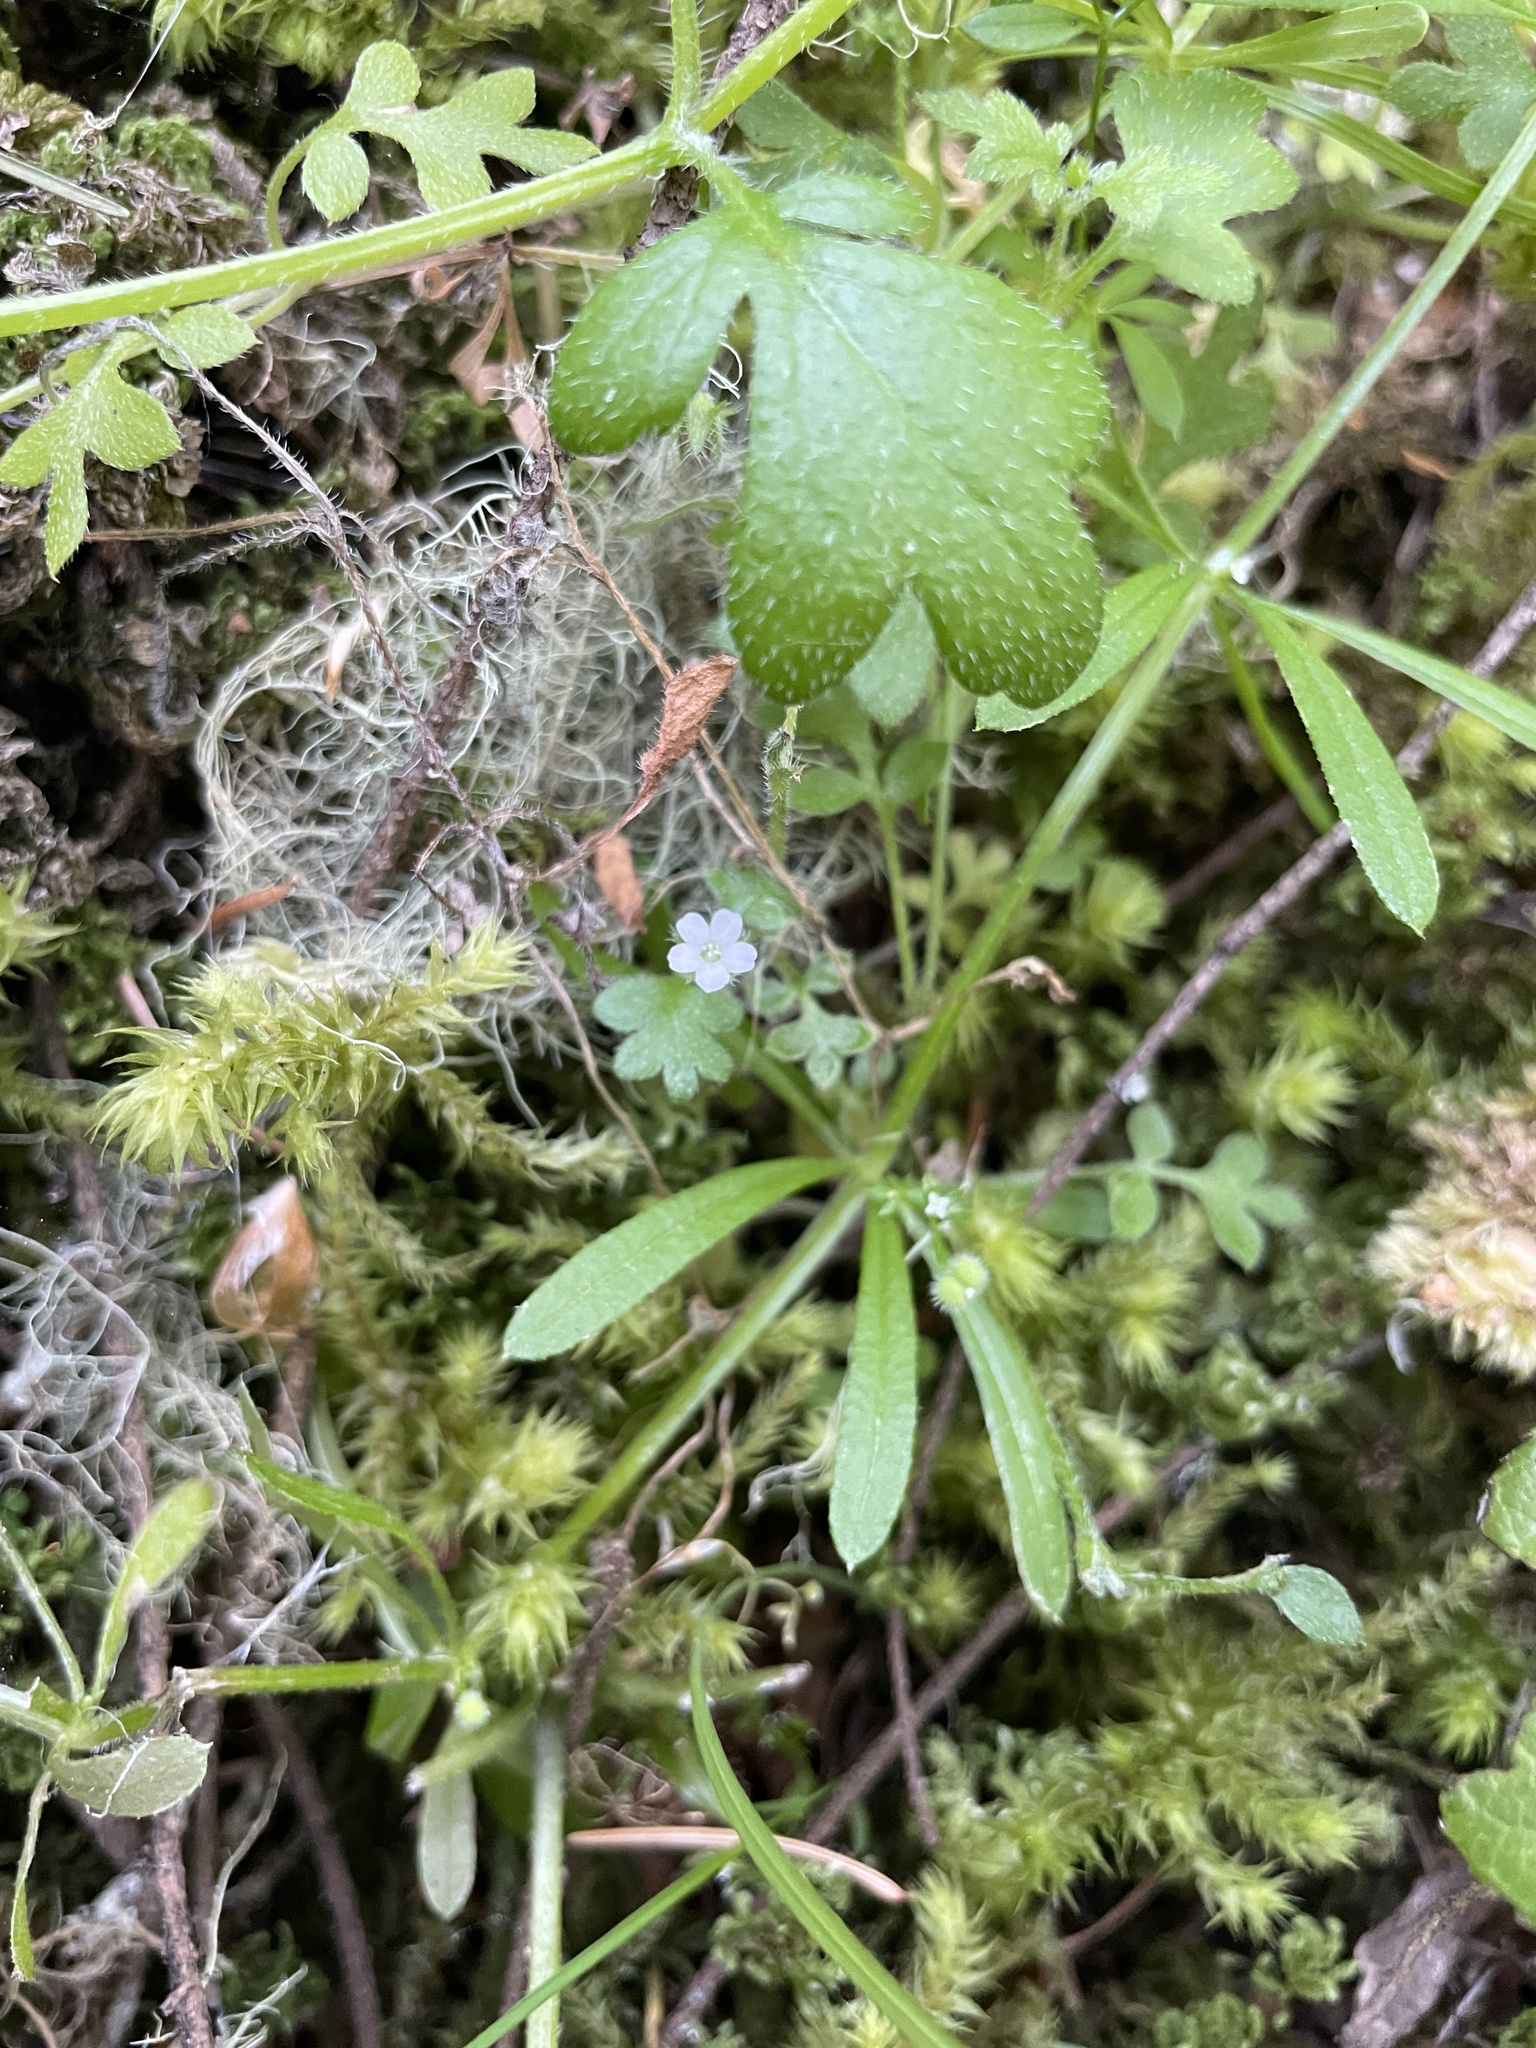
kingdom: Plantae
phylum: Tracheophyta
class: Magnoliopsida
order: Boraginales
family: Hydrophyllaceae
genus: Nemophila
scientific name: Nemophila parviflora
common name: Small-flowered baby-blue-eyes
